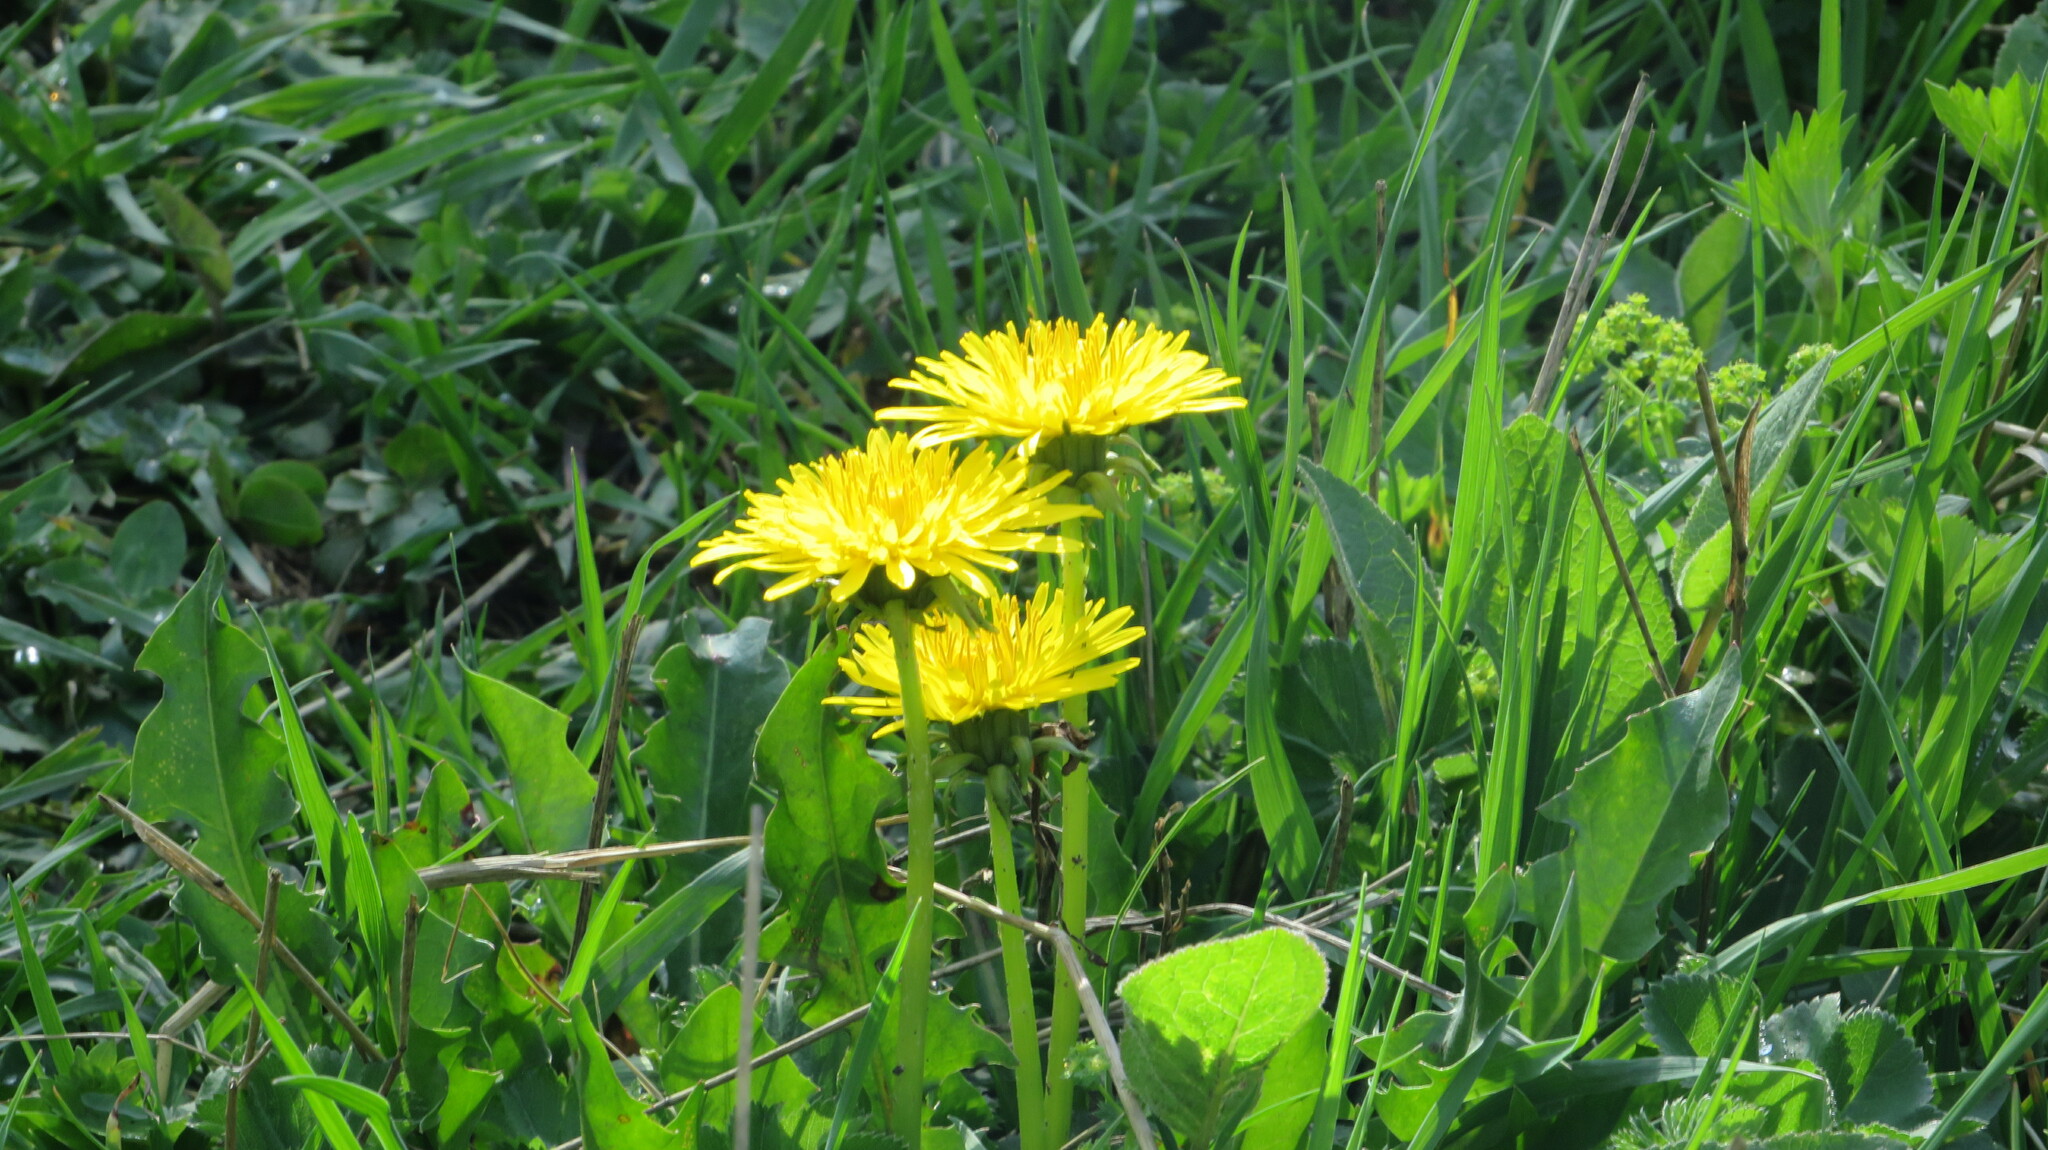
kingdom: Plantae
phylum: Tracheophyta
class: Magnoliopsida
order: Asterales
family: Asteraceae
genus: Taraxacum
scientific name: Taraxacum officinale
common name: Common dandelion
